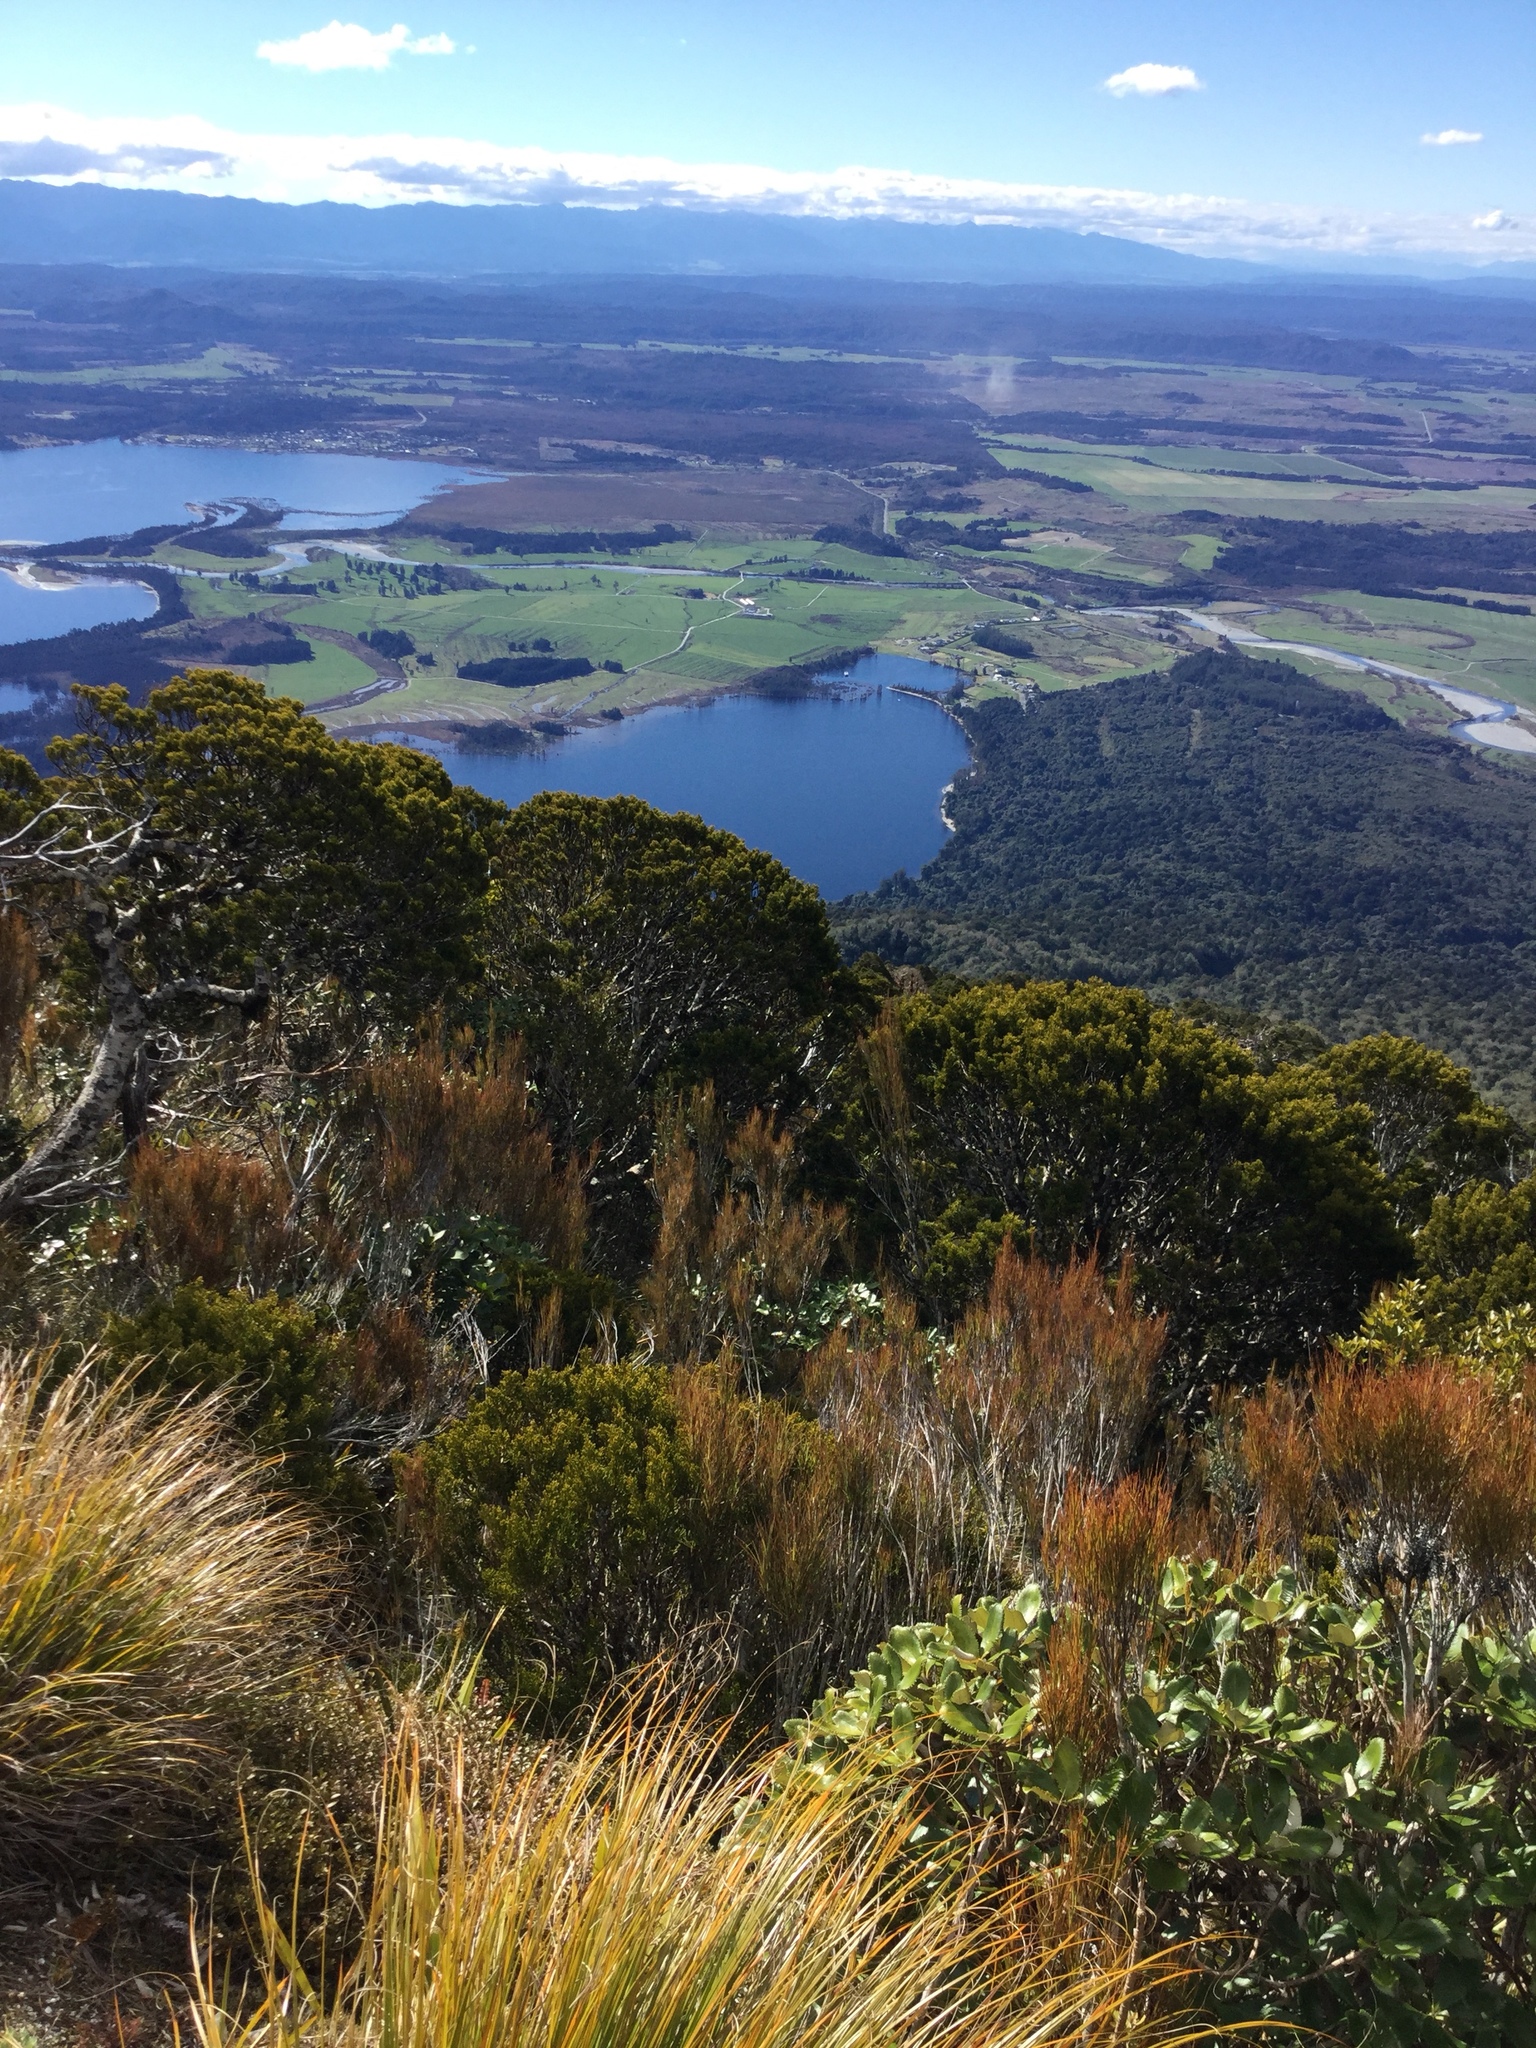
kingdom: Plantae
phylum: Tracheophyta
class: Magnoliopsida
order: Asterales
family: Asteraceae
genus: Macrolearia
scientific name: Macrolearia colensoi
